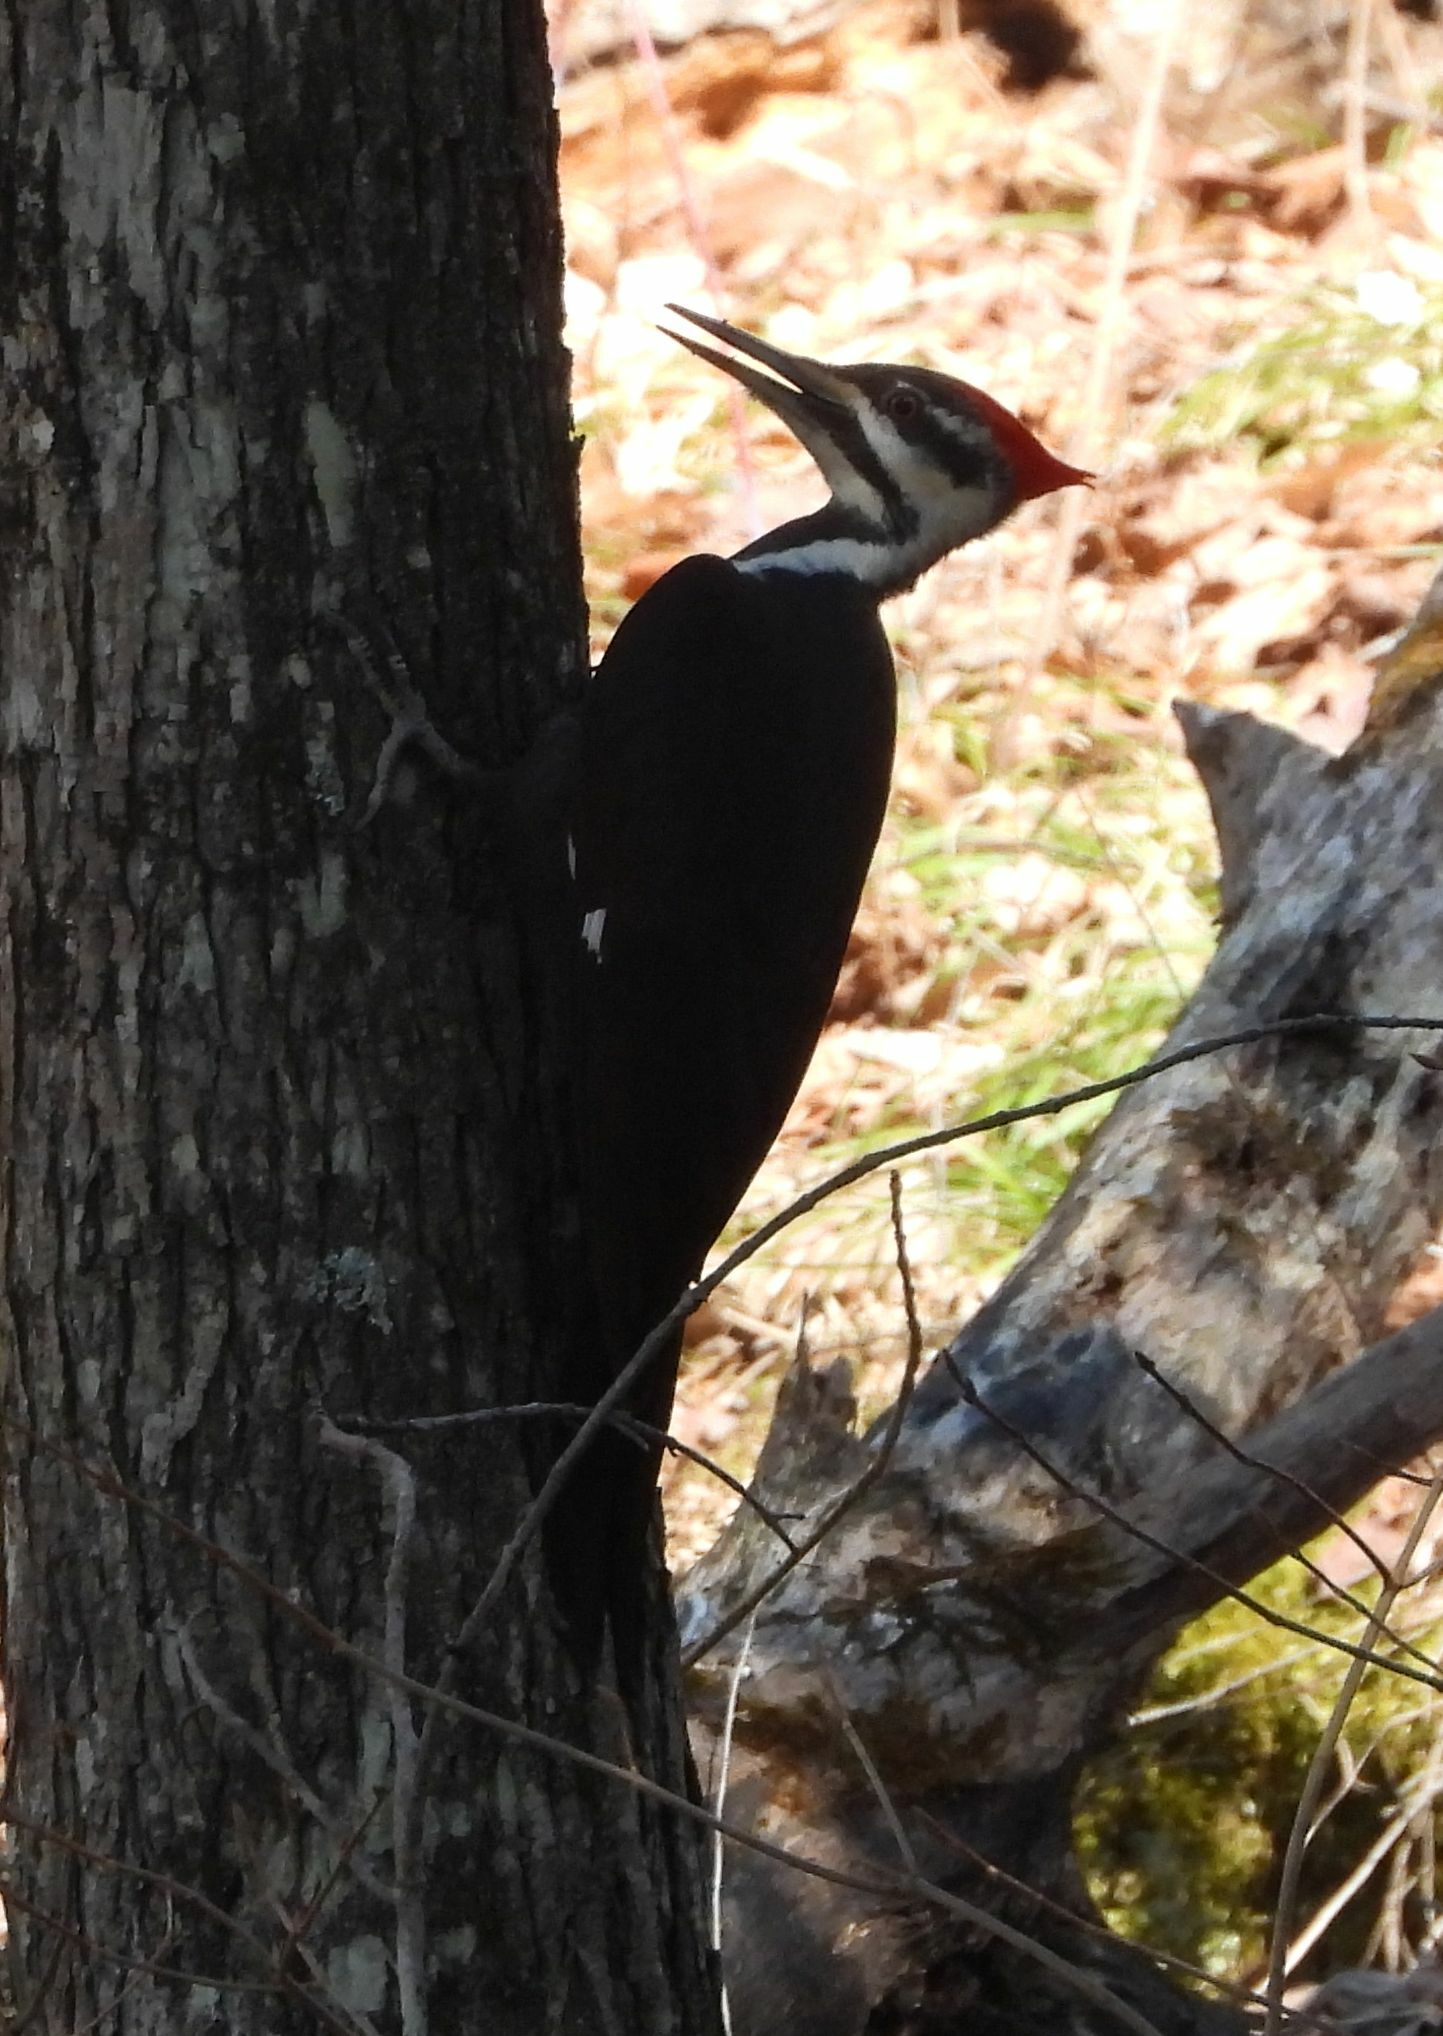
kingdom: Animalia
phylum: Chordata
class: Aves
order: Piciformes
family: Picidae
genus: Dryocopus
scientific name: Dryocopus pileatus
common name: Pileated woodpecker
